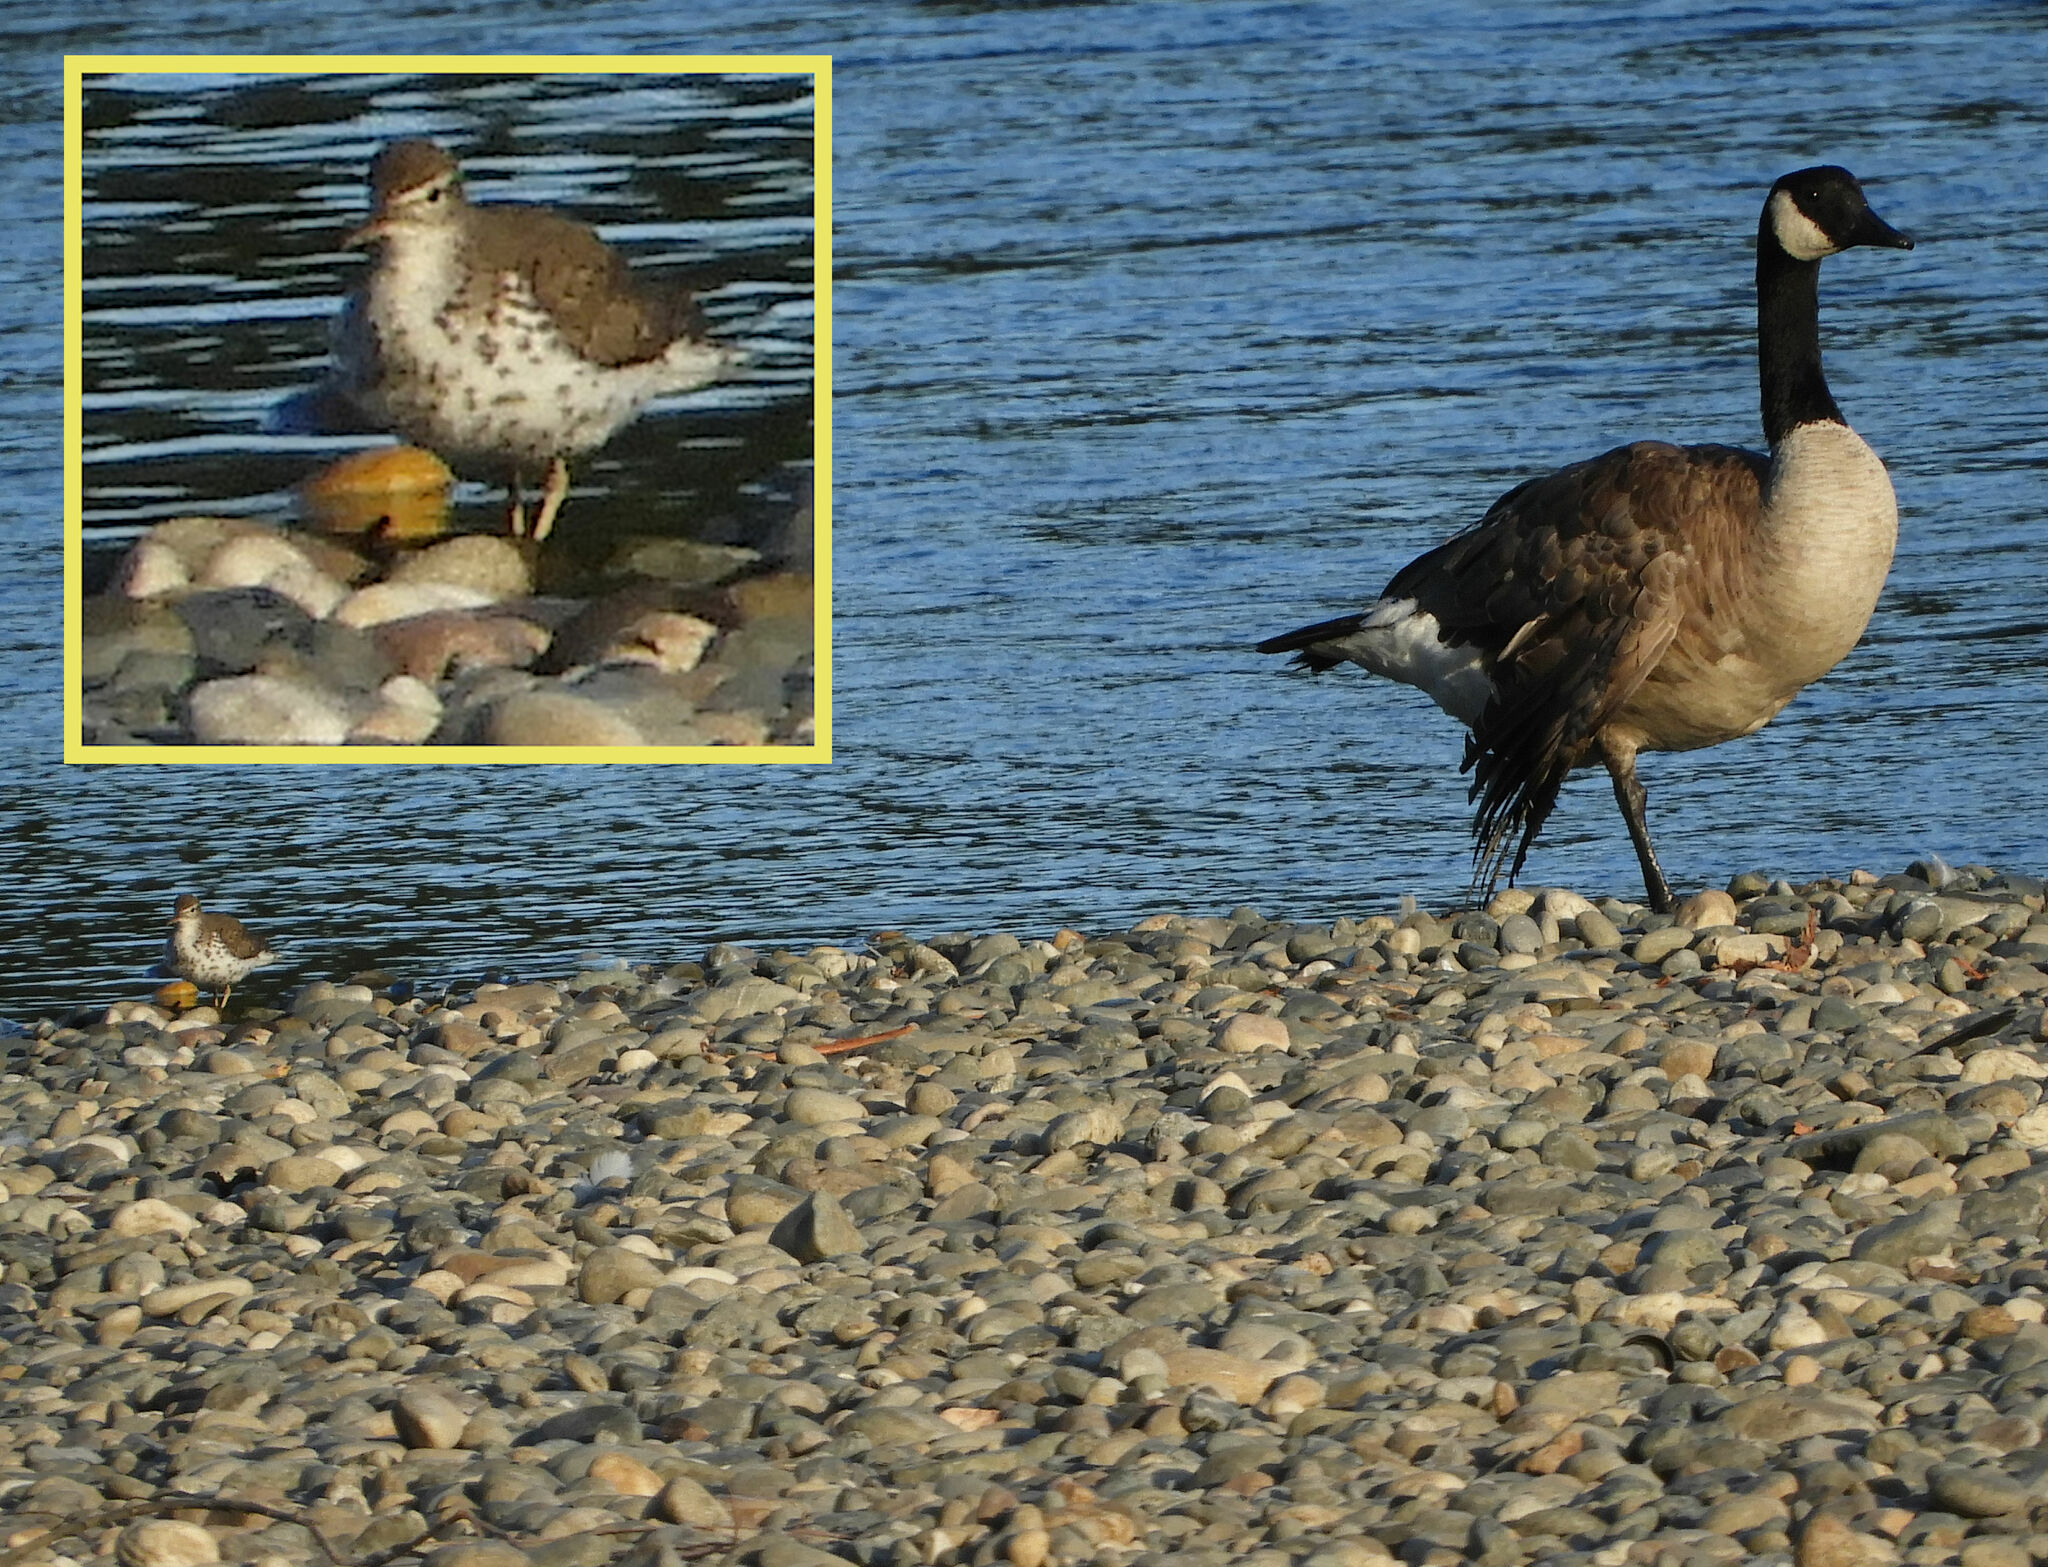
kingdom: Animalia
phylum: Chordata
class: Aves
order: Charadriiformes
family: Scolopacidae
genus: Actitis
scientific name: Actitis macularius
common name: Spotted sandpiper
